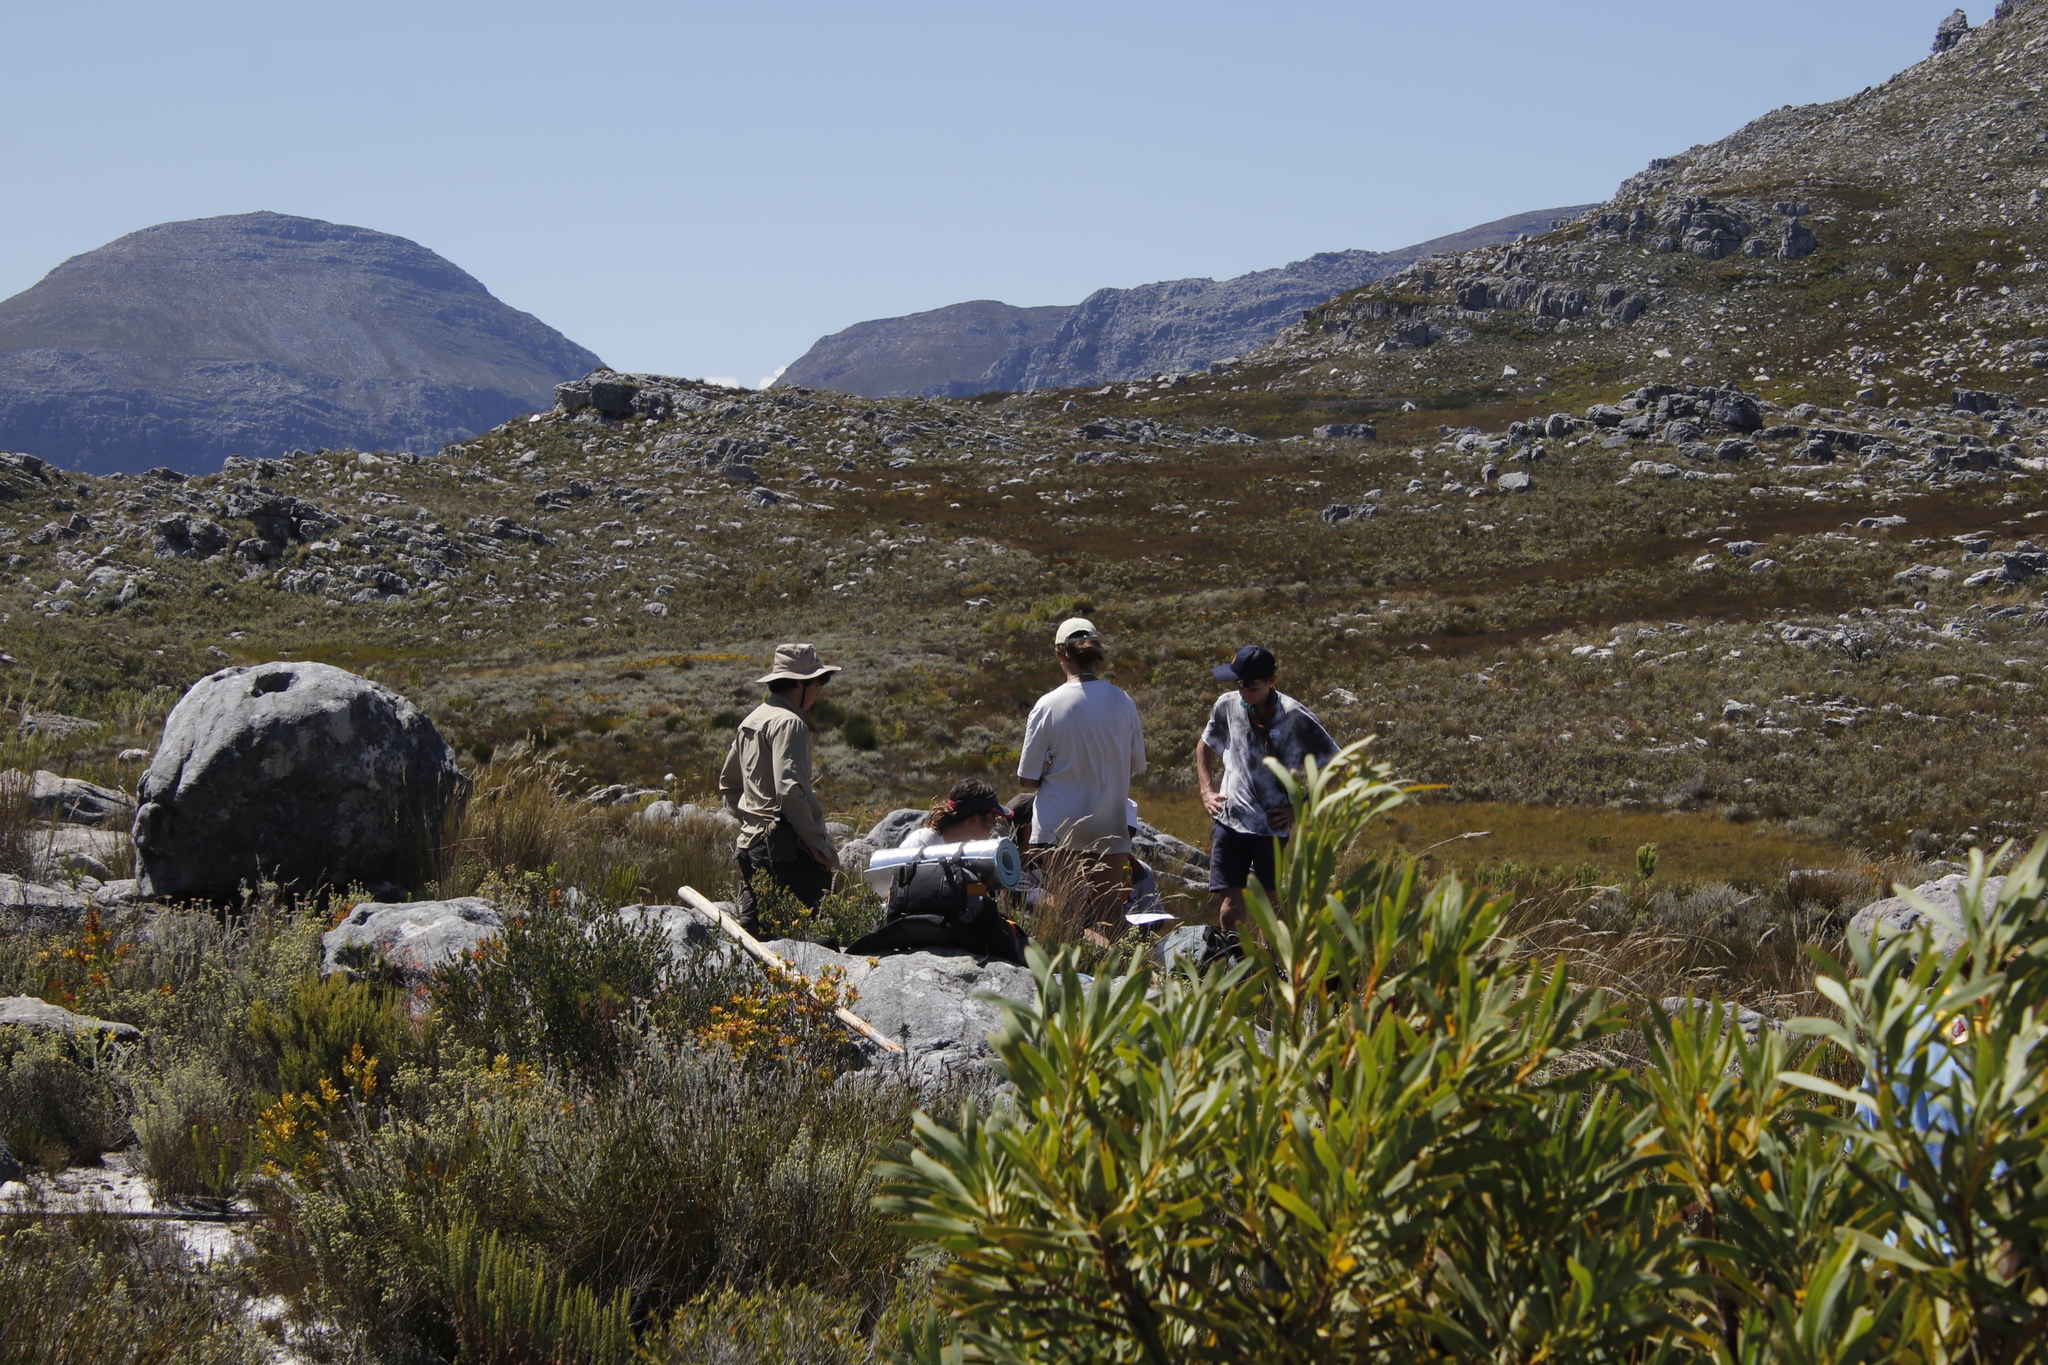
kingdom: Plantae
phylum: Tracheophyta
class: Magnoliopsida
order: Proteales
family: Proteaceae
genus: Protea
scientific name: Protea repens
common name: Sugarbush
